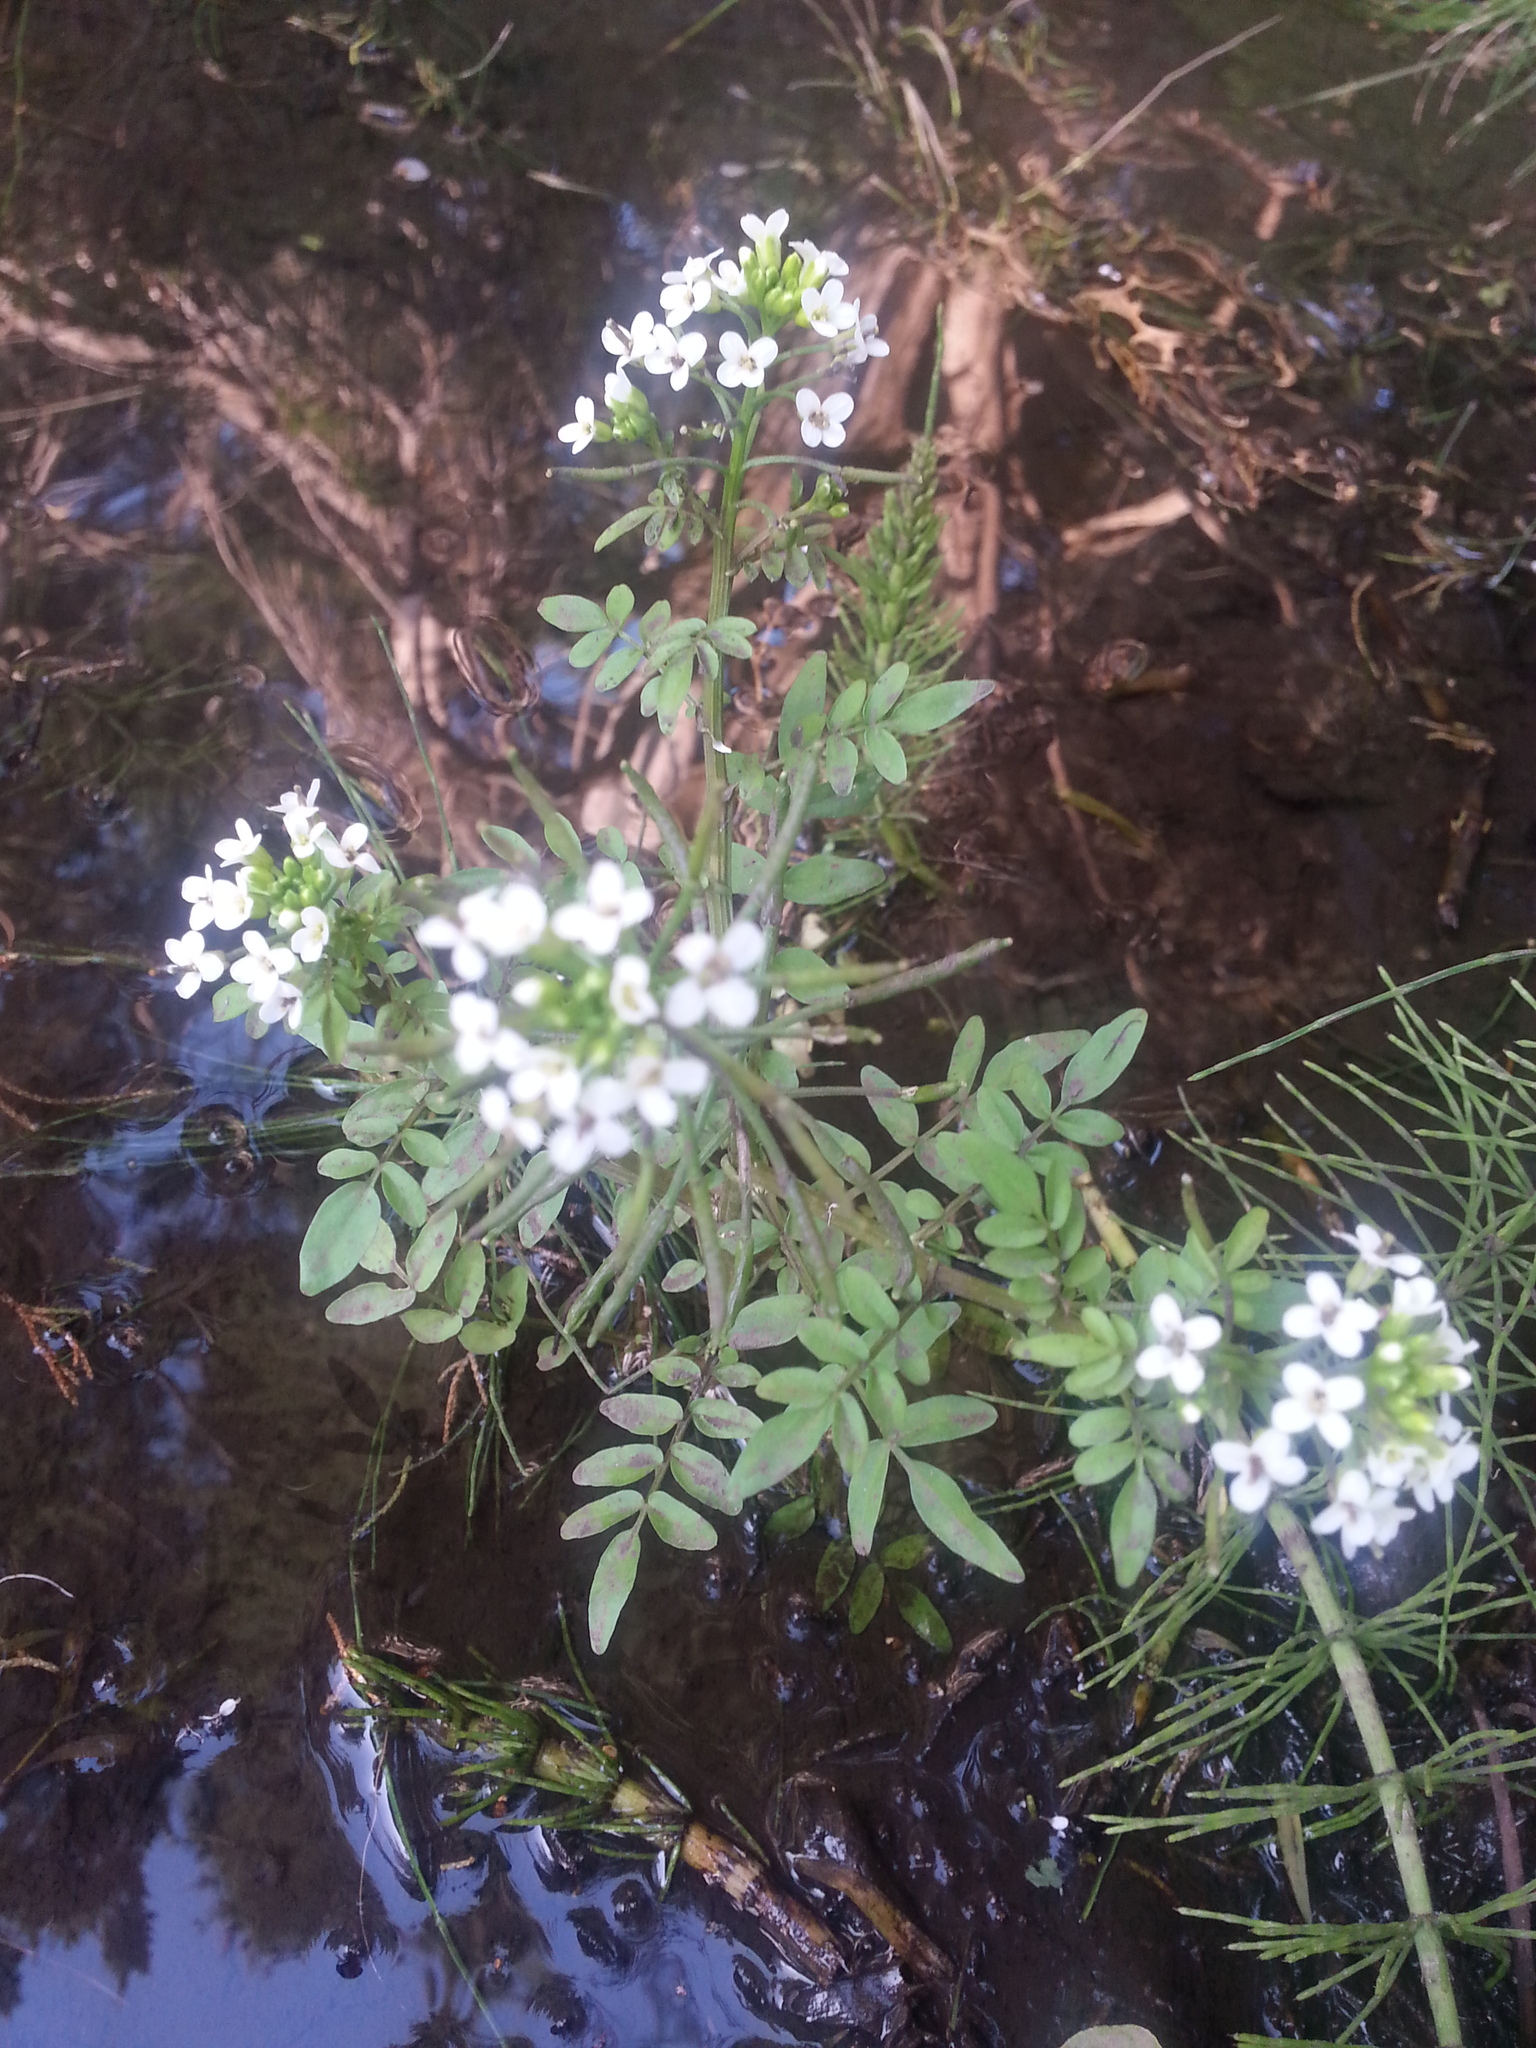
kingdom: Plantae
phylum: Tracheophyta
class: Magnoliopsida
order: Brassicales
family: Brassicaceae
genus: Nasturtium
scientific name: Nasturtium officinale
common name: Watercress
